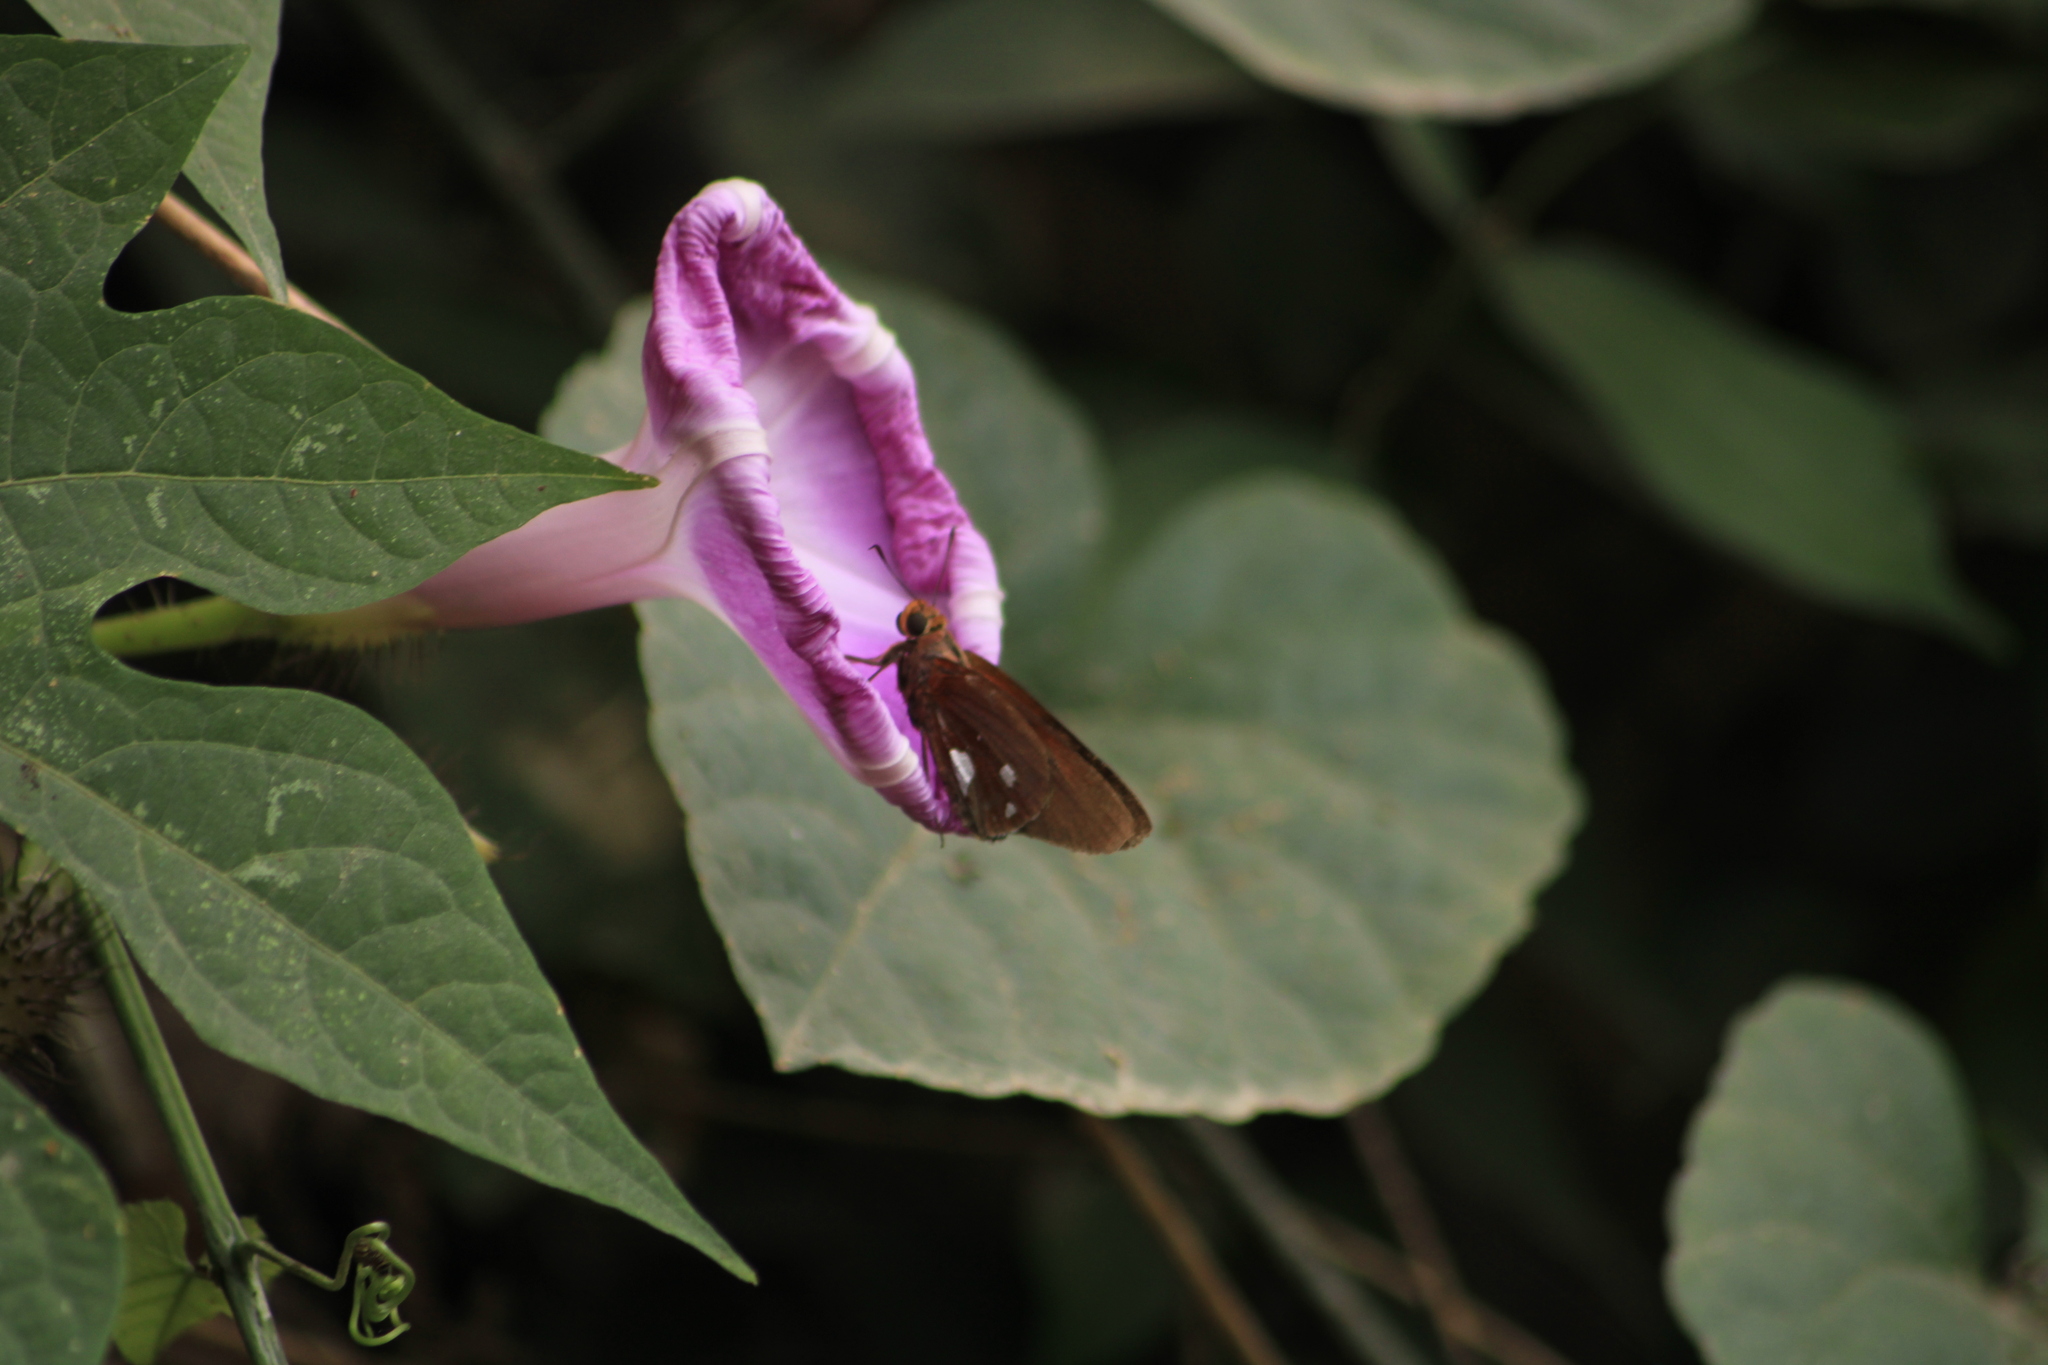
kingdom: Animalia
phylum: Arthropoda
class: Insecta
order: Lepidoptera
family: Hesperiidae
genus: Aides
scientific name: Aides dysoni
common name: Dyson's silverpatch
